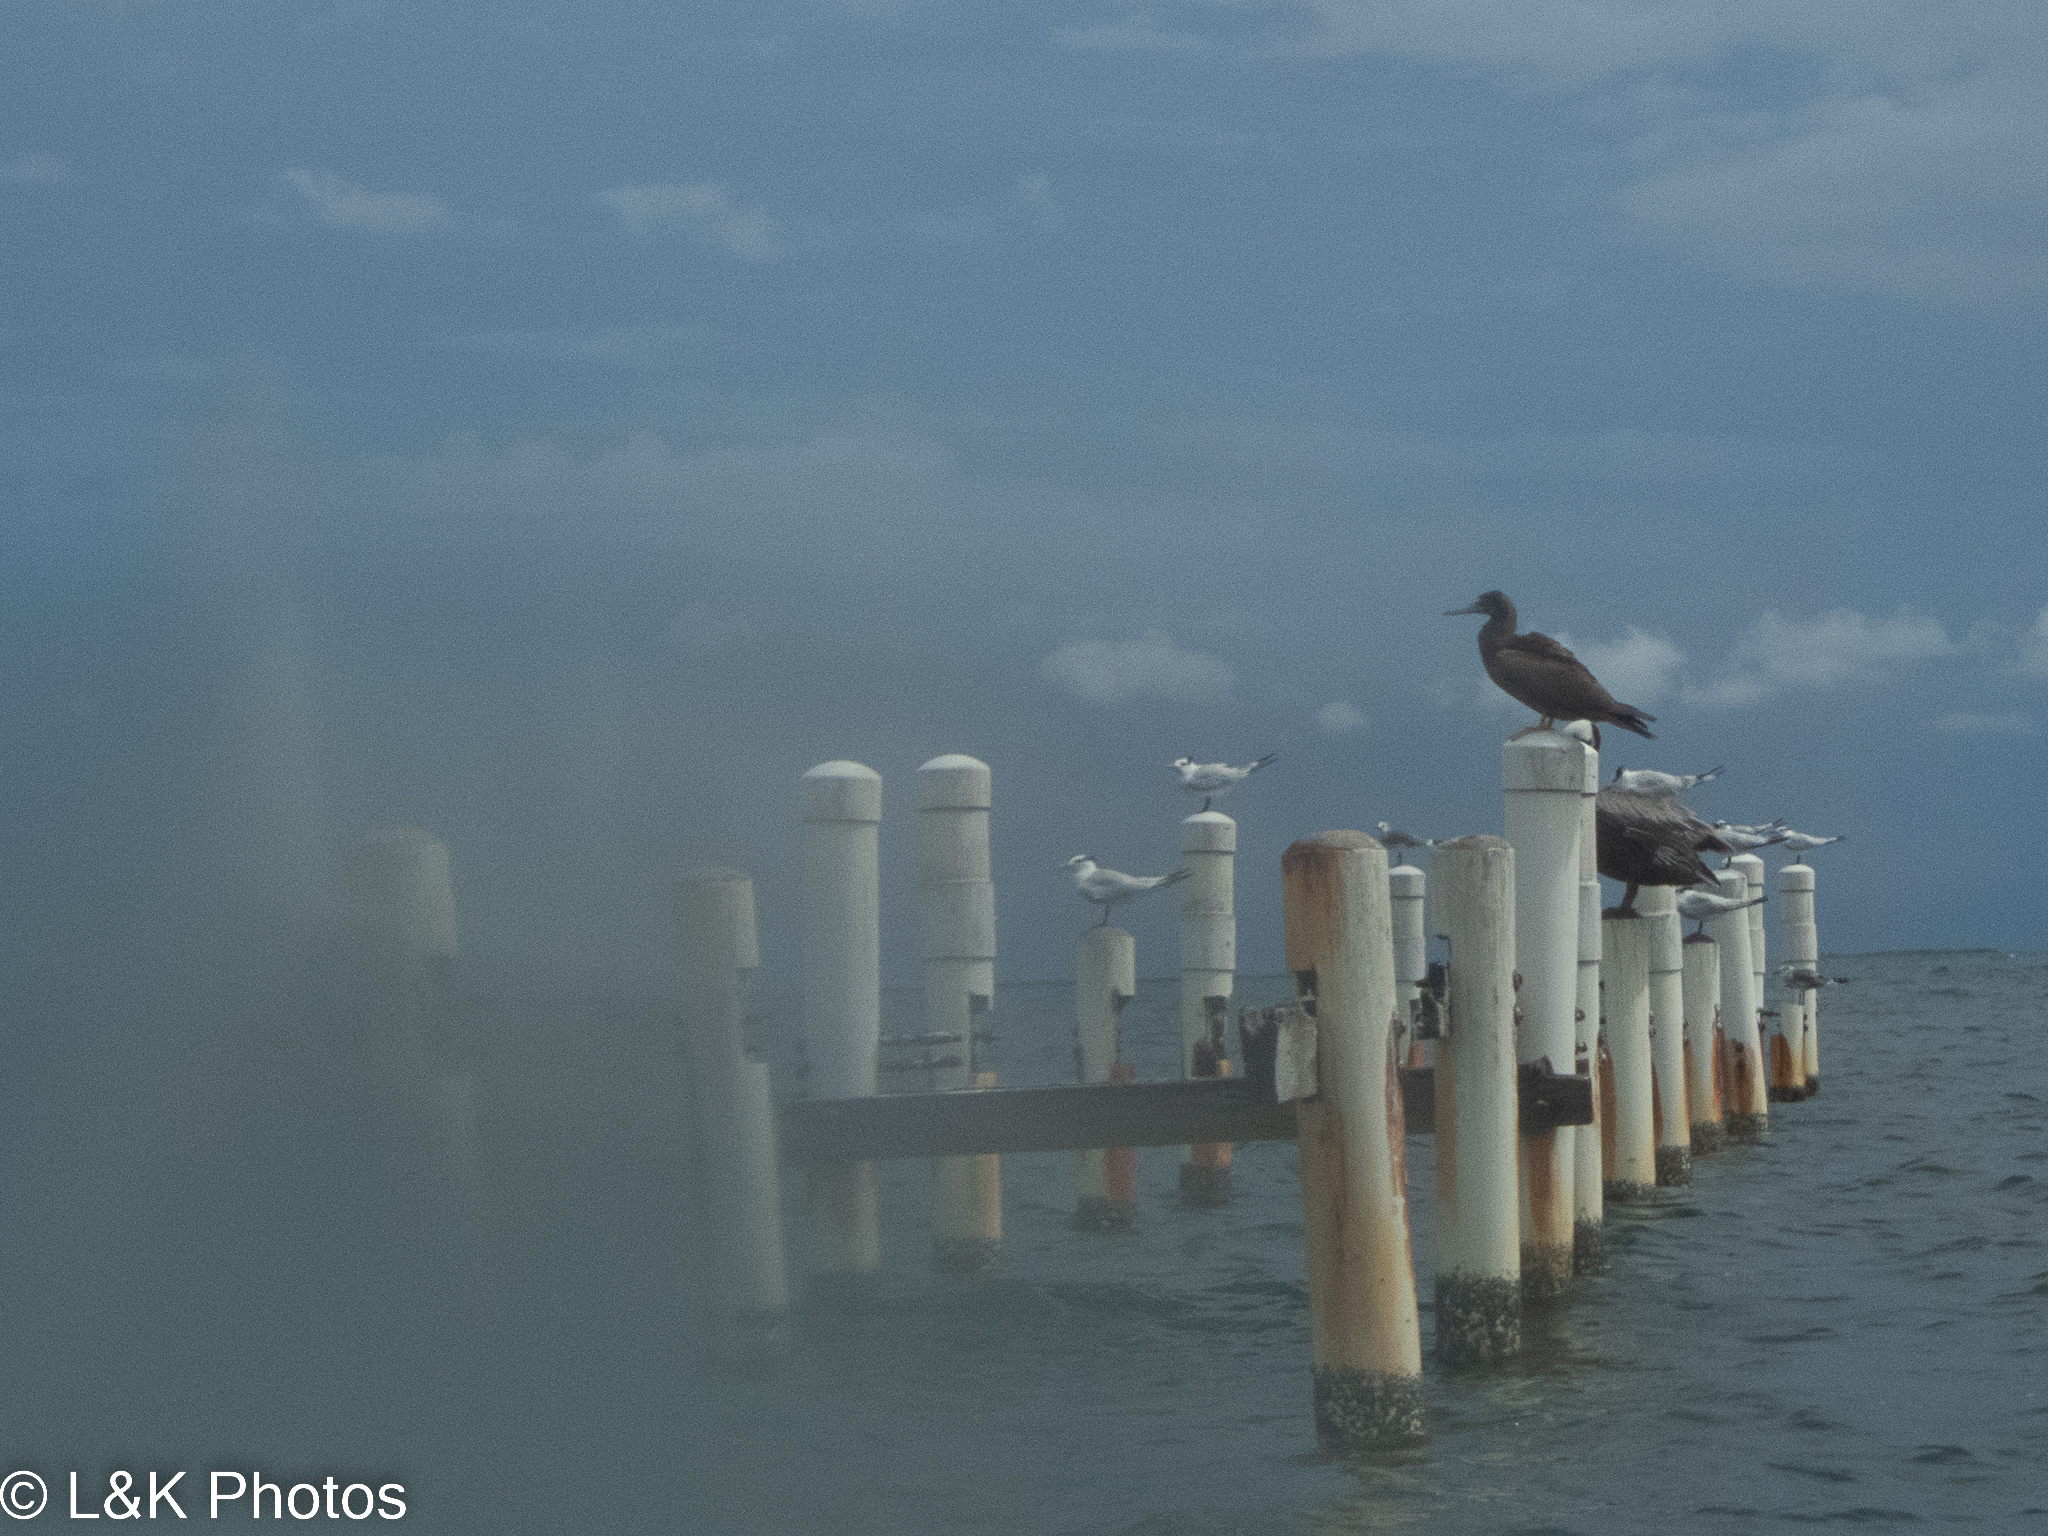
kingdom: Animalia
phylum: Chordata
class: Aves
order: Suliformes
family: Sulidae
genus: Sula
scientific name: Sula leucogaster
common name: Brown booby
